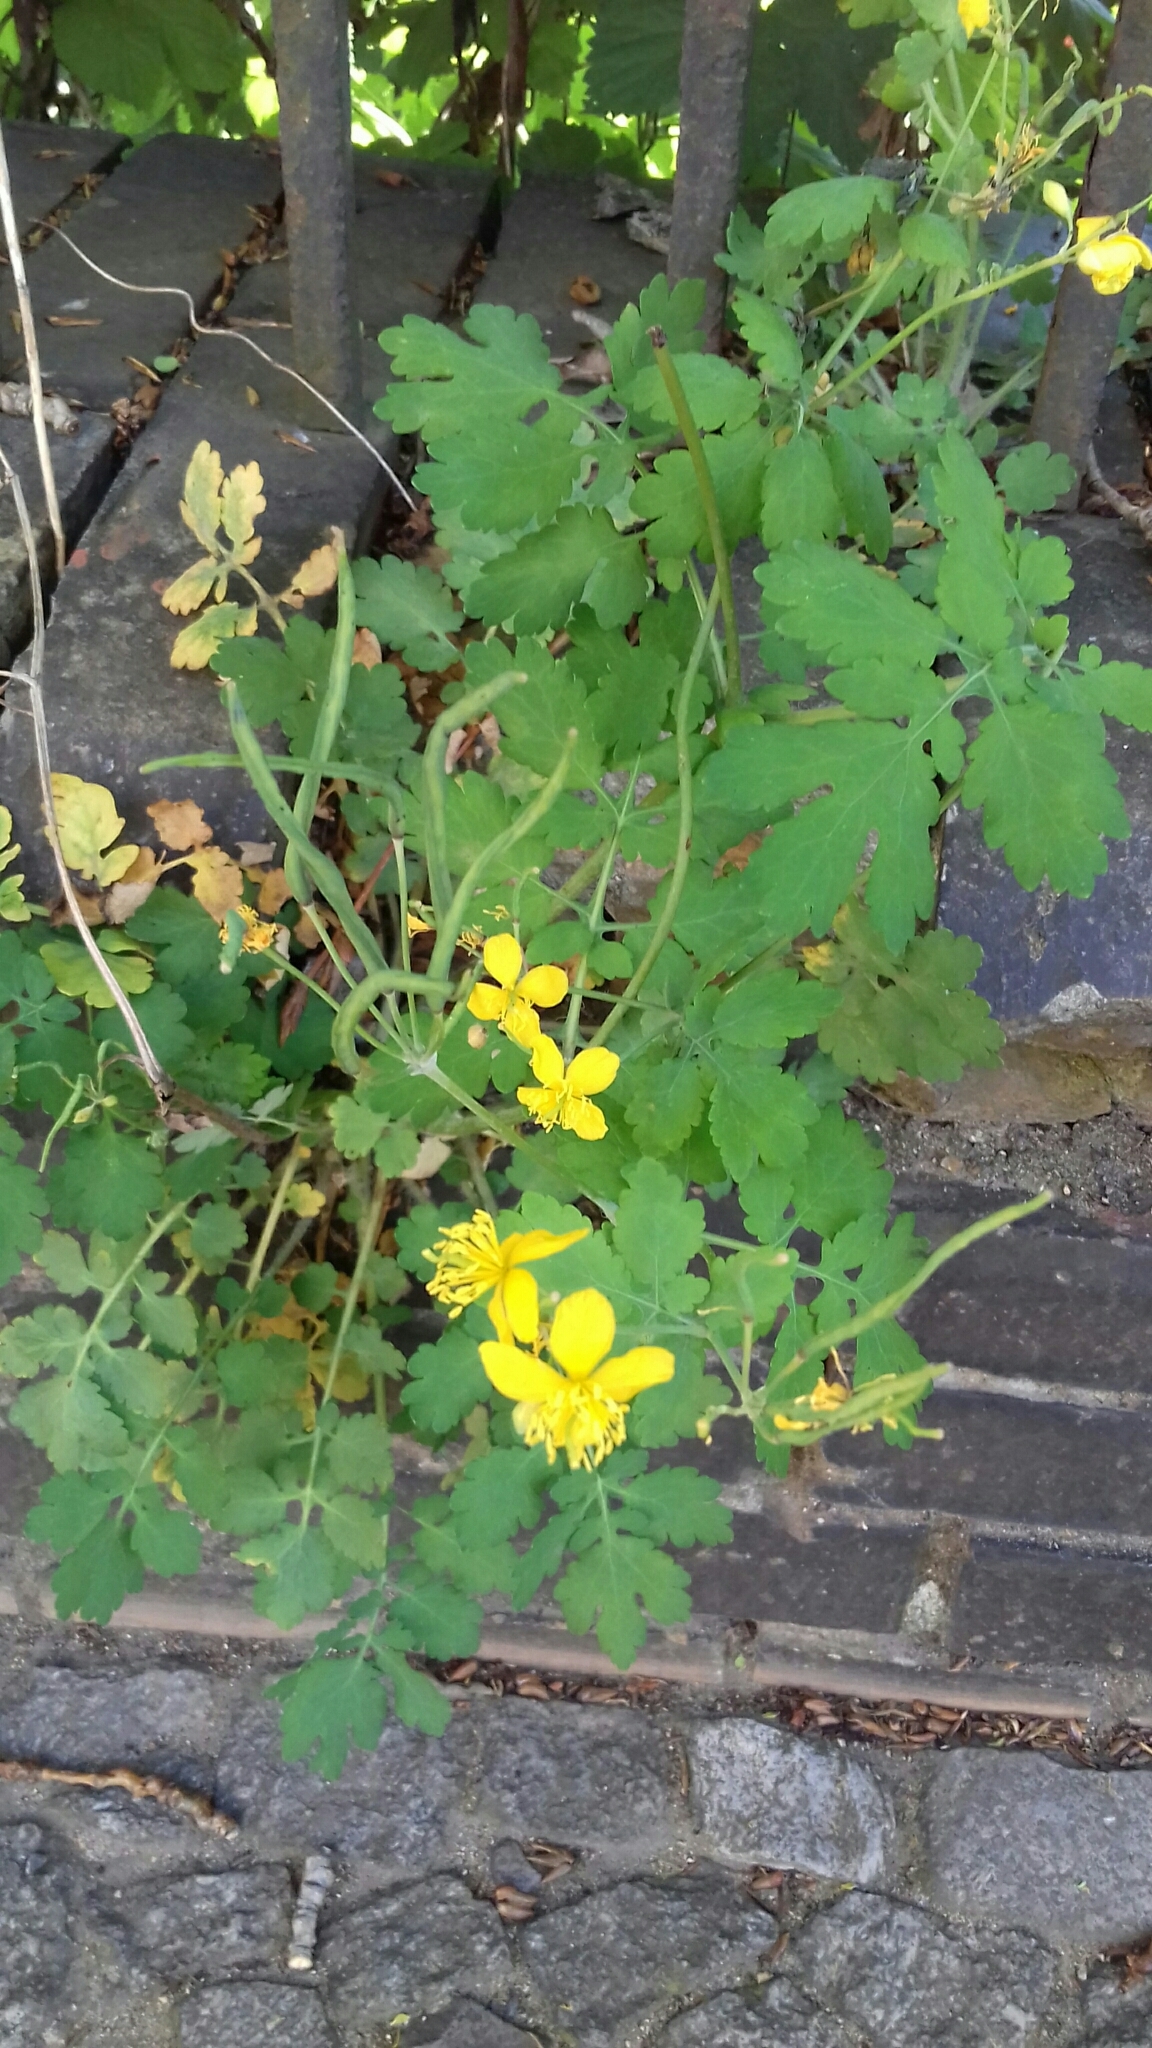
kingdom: Plantae
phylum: Tracheophyta
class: Magnoliopsida
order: Ranunculales
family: Papaveraceae
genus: Chelidonium
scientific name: Chelidonium majus
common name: Greater celandine
